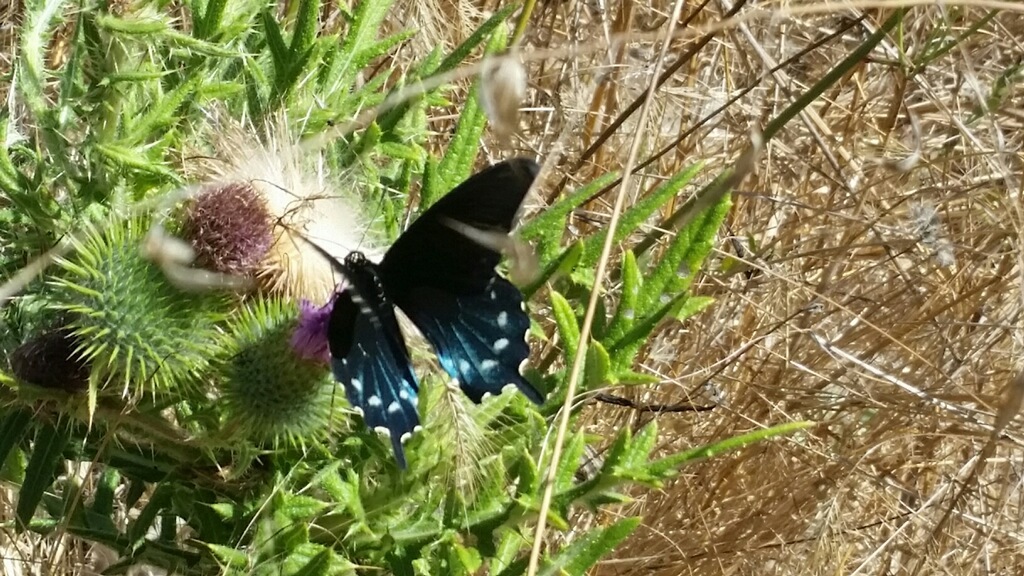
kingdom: Animalia
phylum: Arthropoda
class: Insecta
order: Lepidoptera
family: Papilionidae
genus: Battus
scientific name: Battus philenor
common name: Pipevine swallowtail
